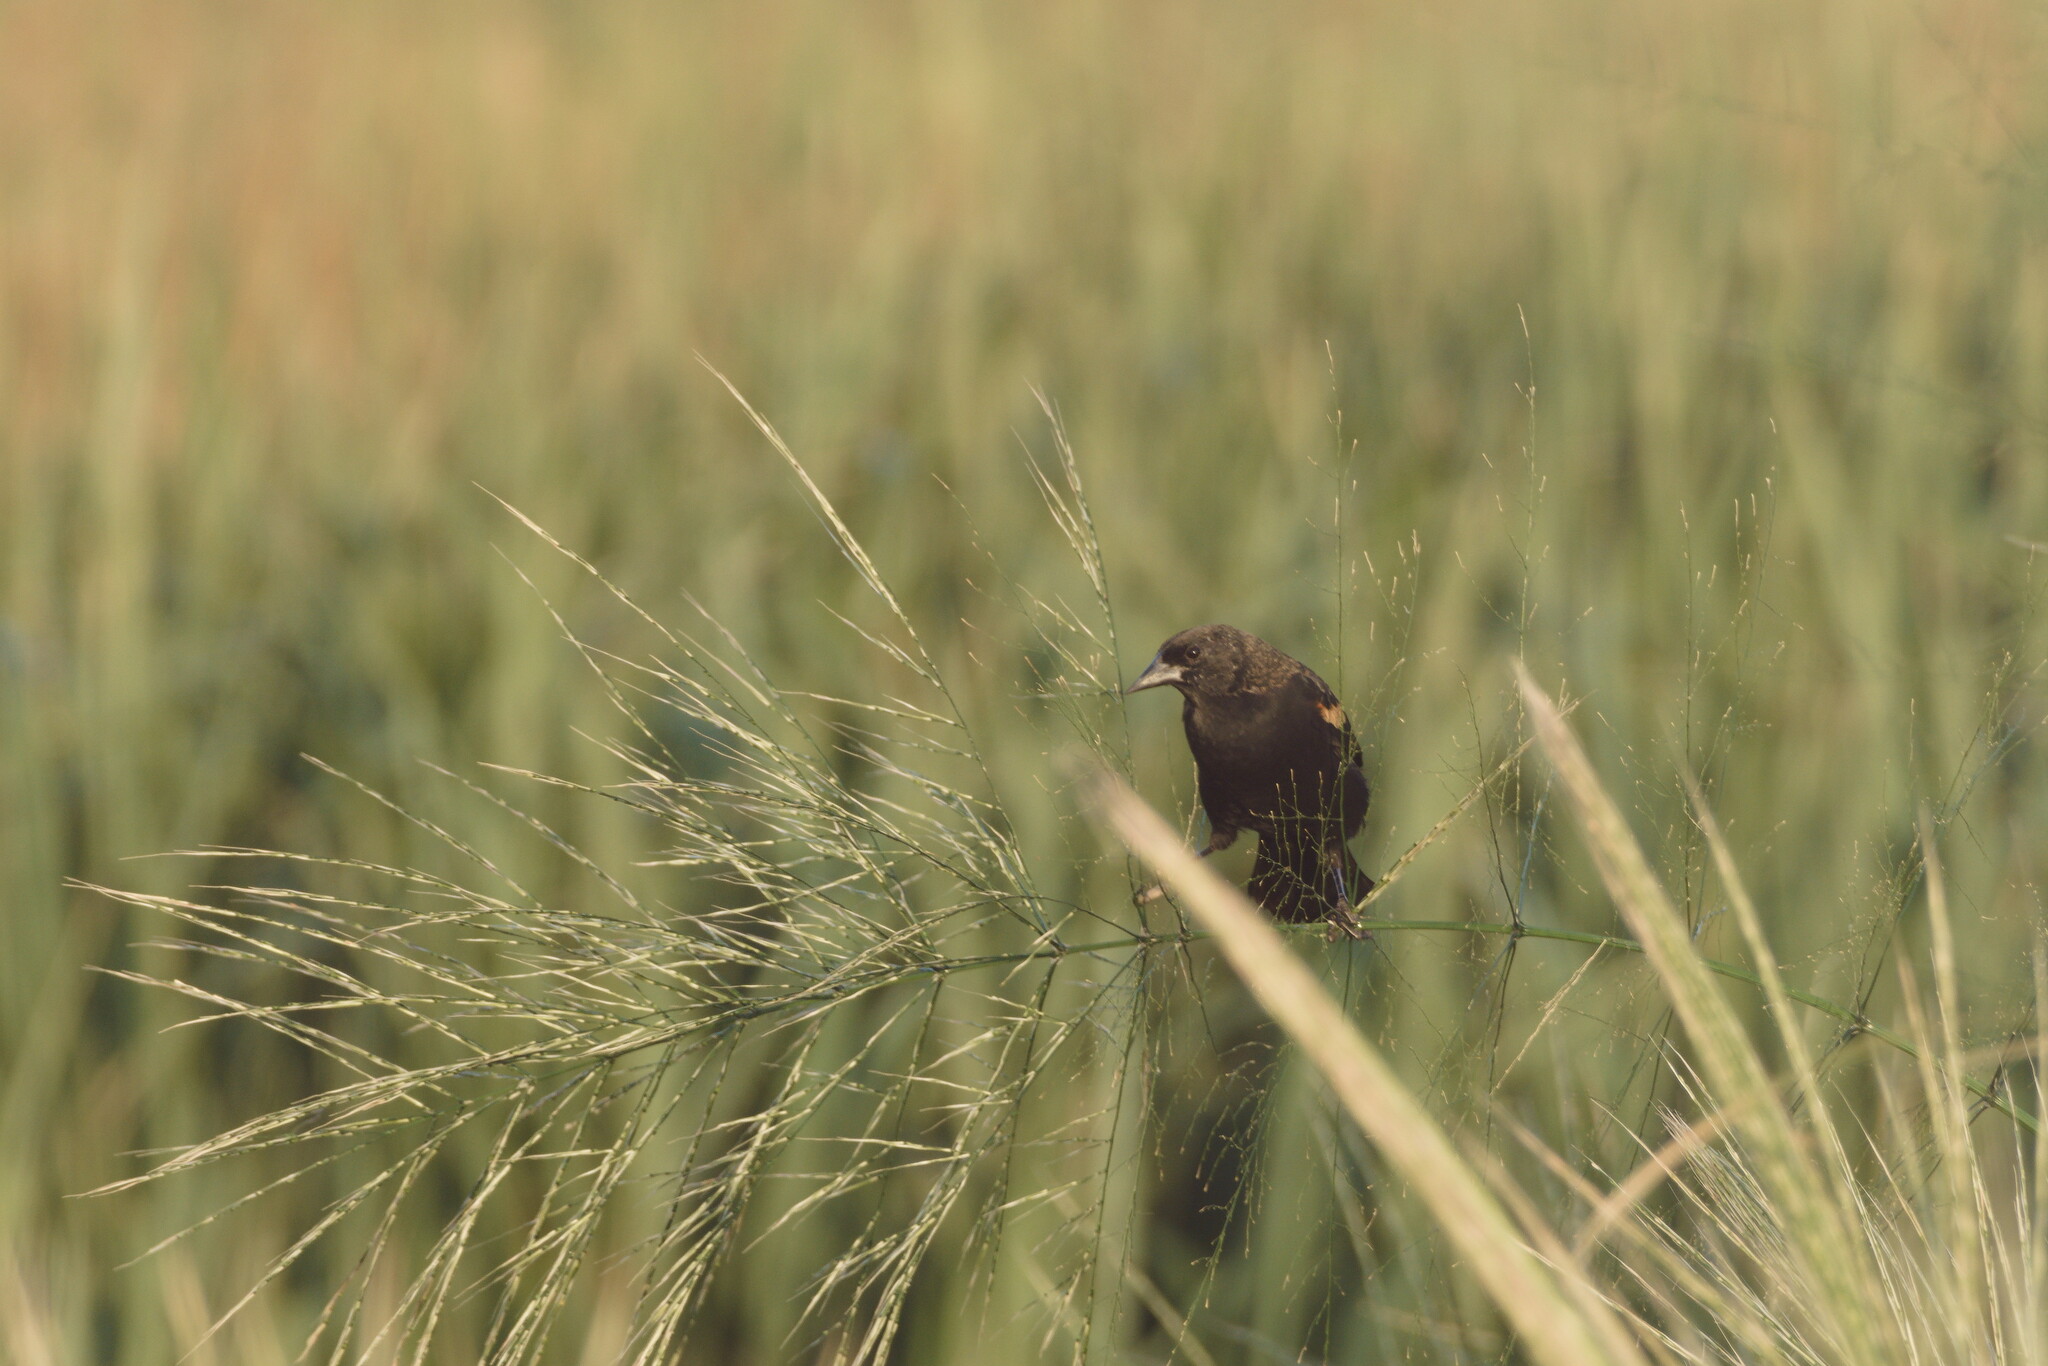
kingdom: Animalia
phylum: Chordata
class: Aves
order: Passeriformes
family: Icteridae
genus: Agelaius
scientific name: Agelaius phoeniceus
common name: Red-winged blackbird
